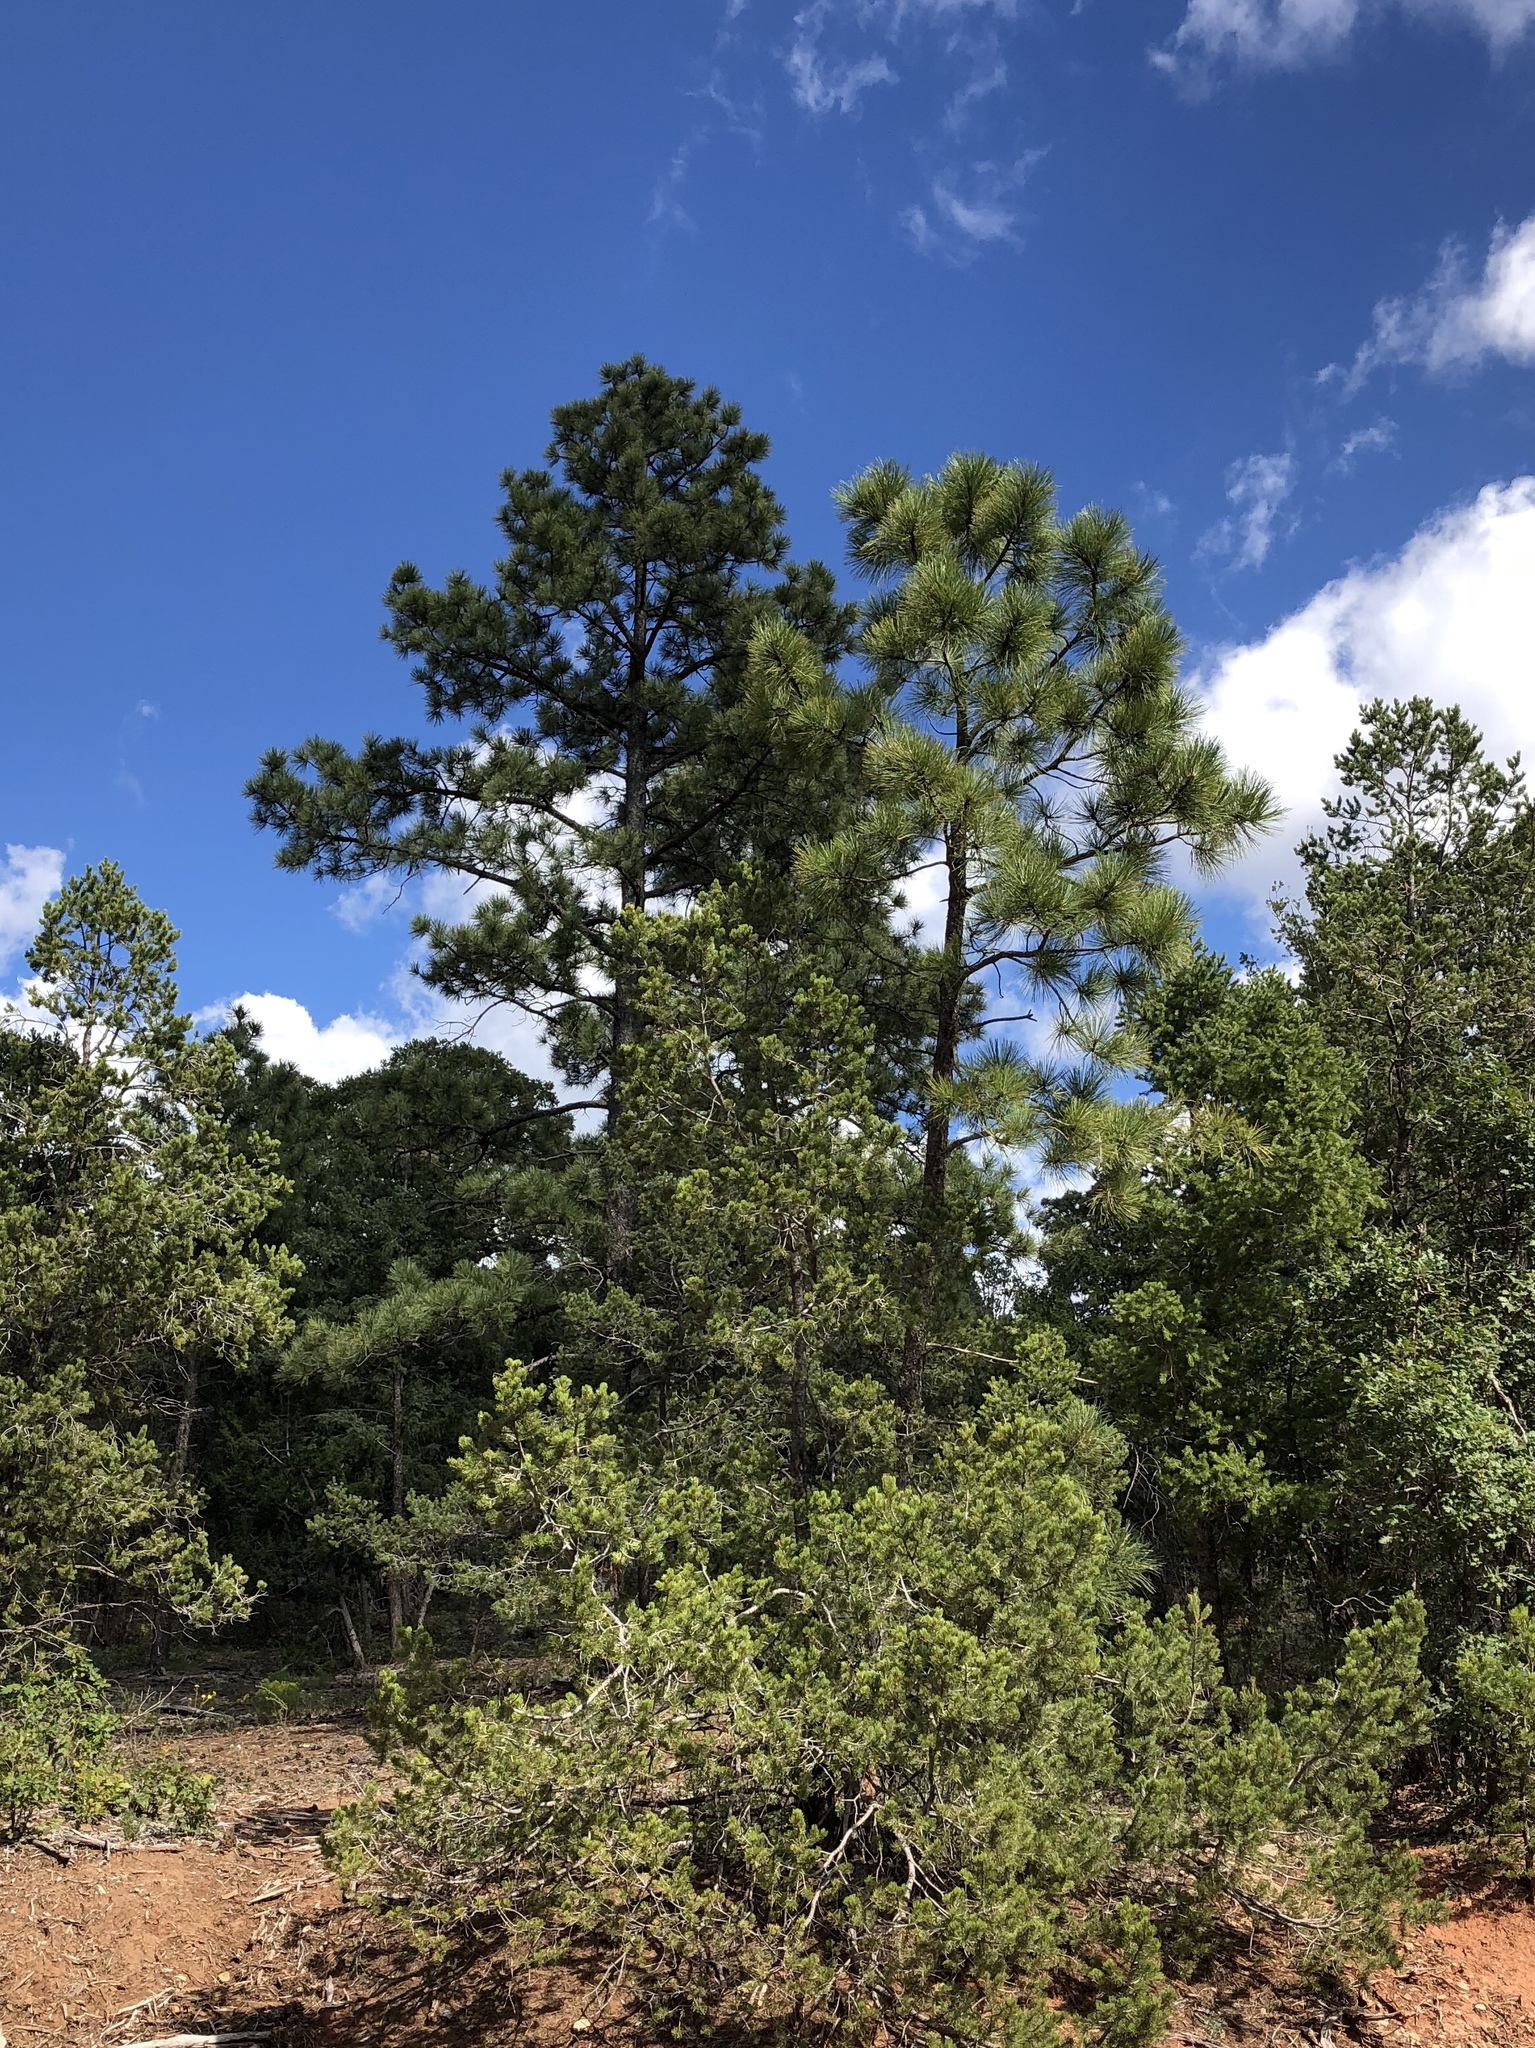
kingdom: Plantae
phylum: Tracheophyta
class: Pinopsida
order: Pinales
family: Pinaceae
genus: Pinus
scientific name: Pinus ponderosa
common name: Western yellow-pine
